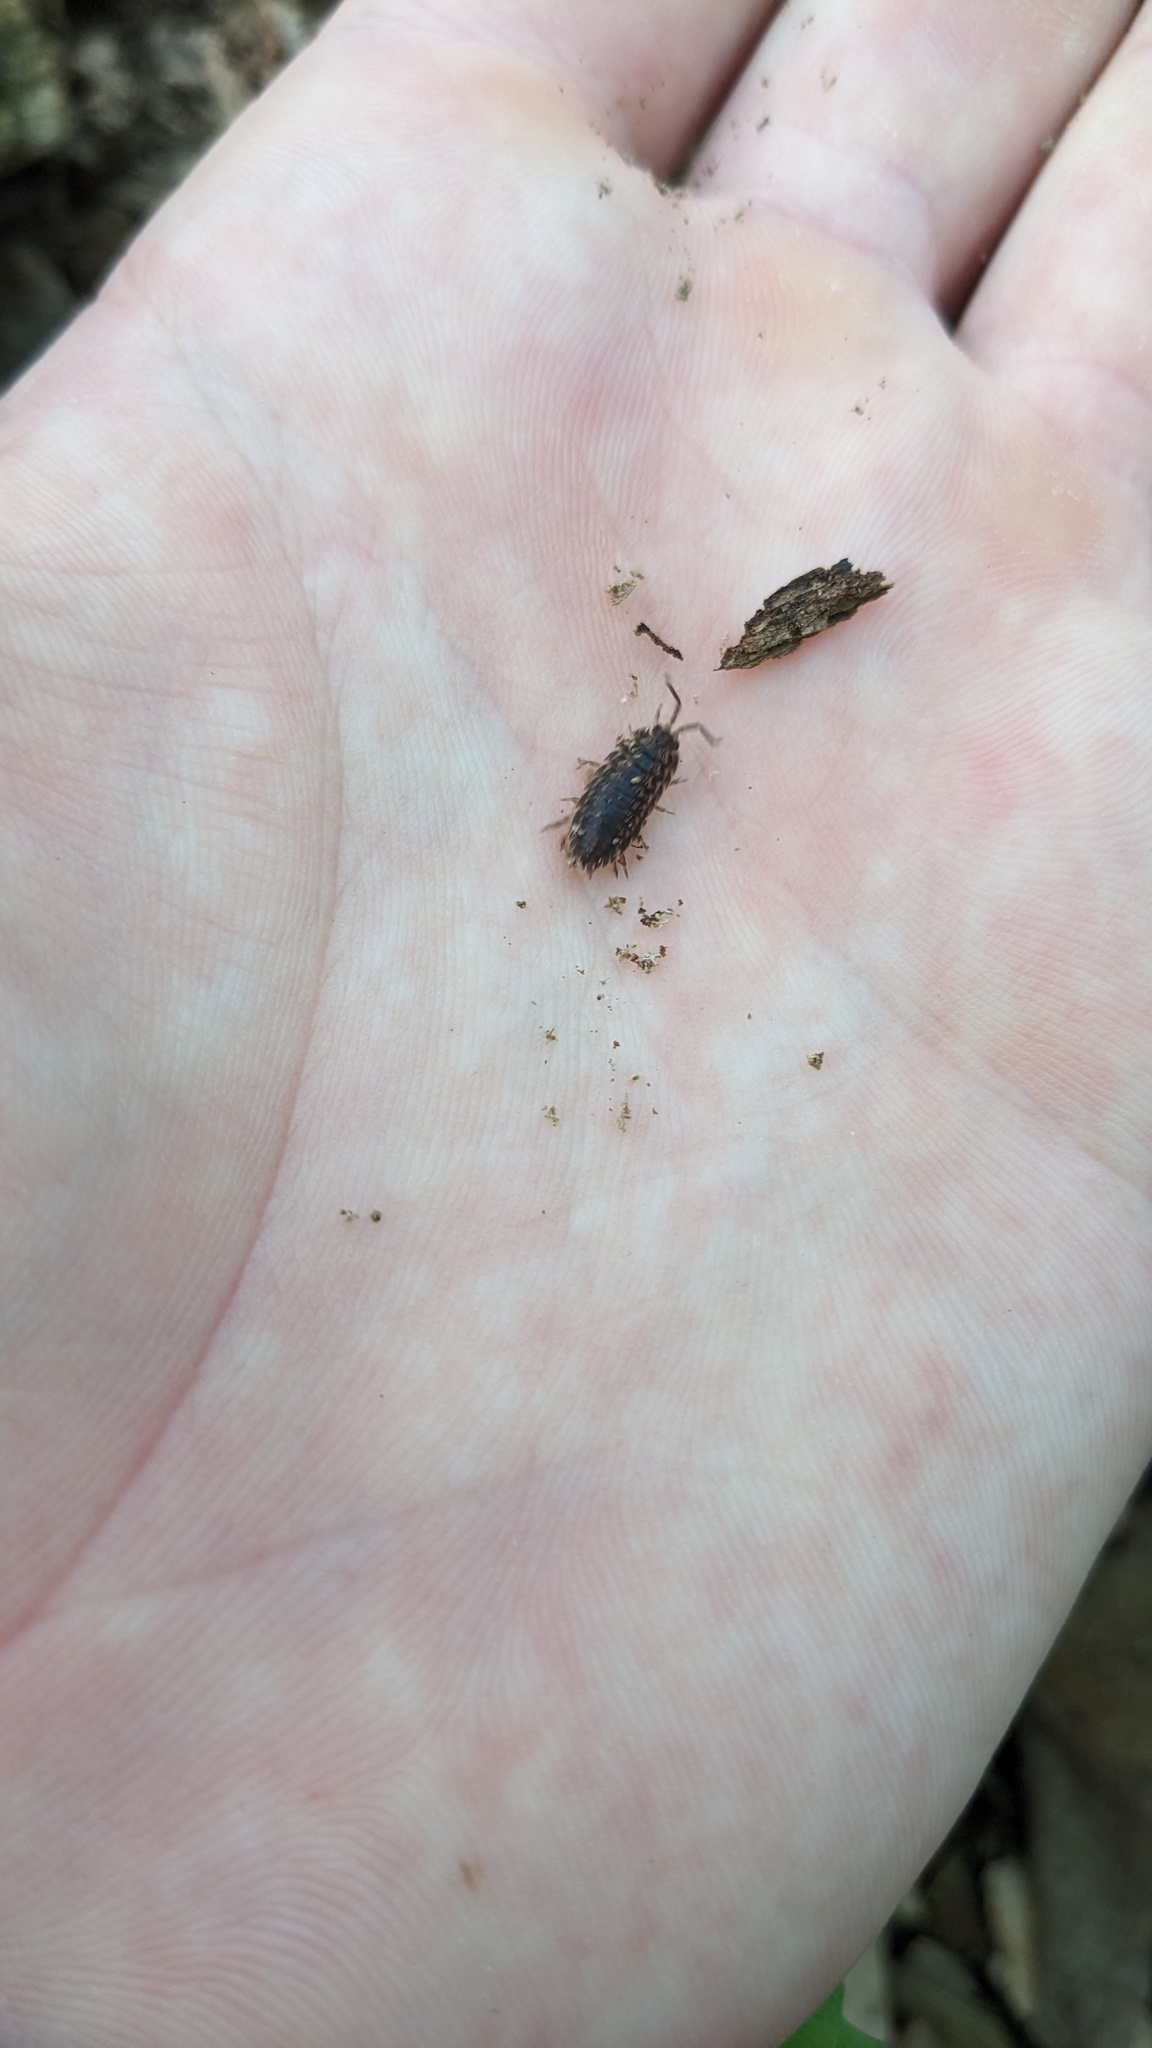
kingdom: Animalia
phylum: Arthropoda
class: Malacostraca
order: Isopoda
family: Trachelipodidae
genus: Trachelipus
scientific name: Trachelipus rathkii
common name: Isopod
